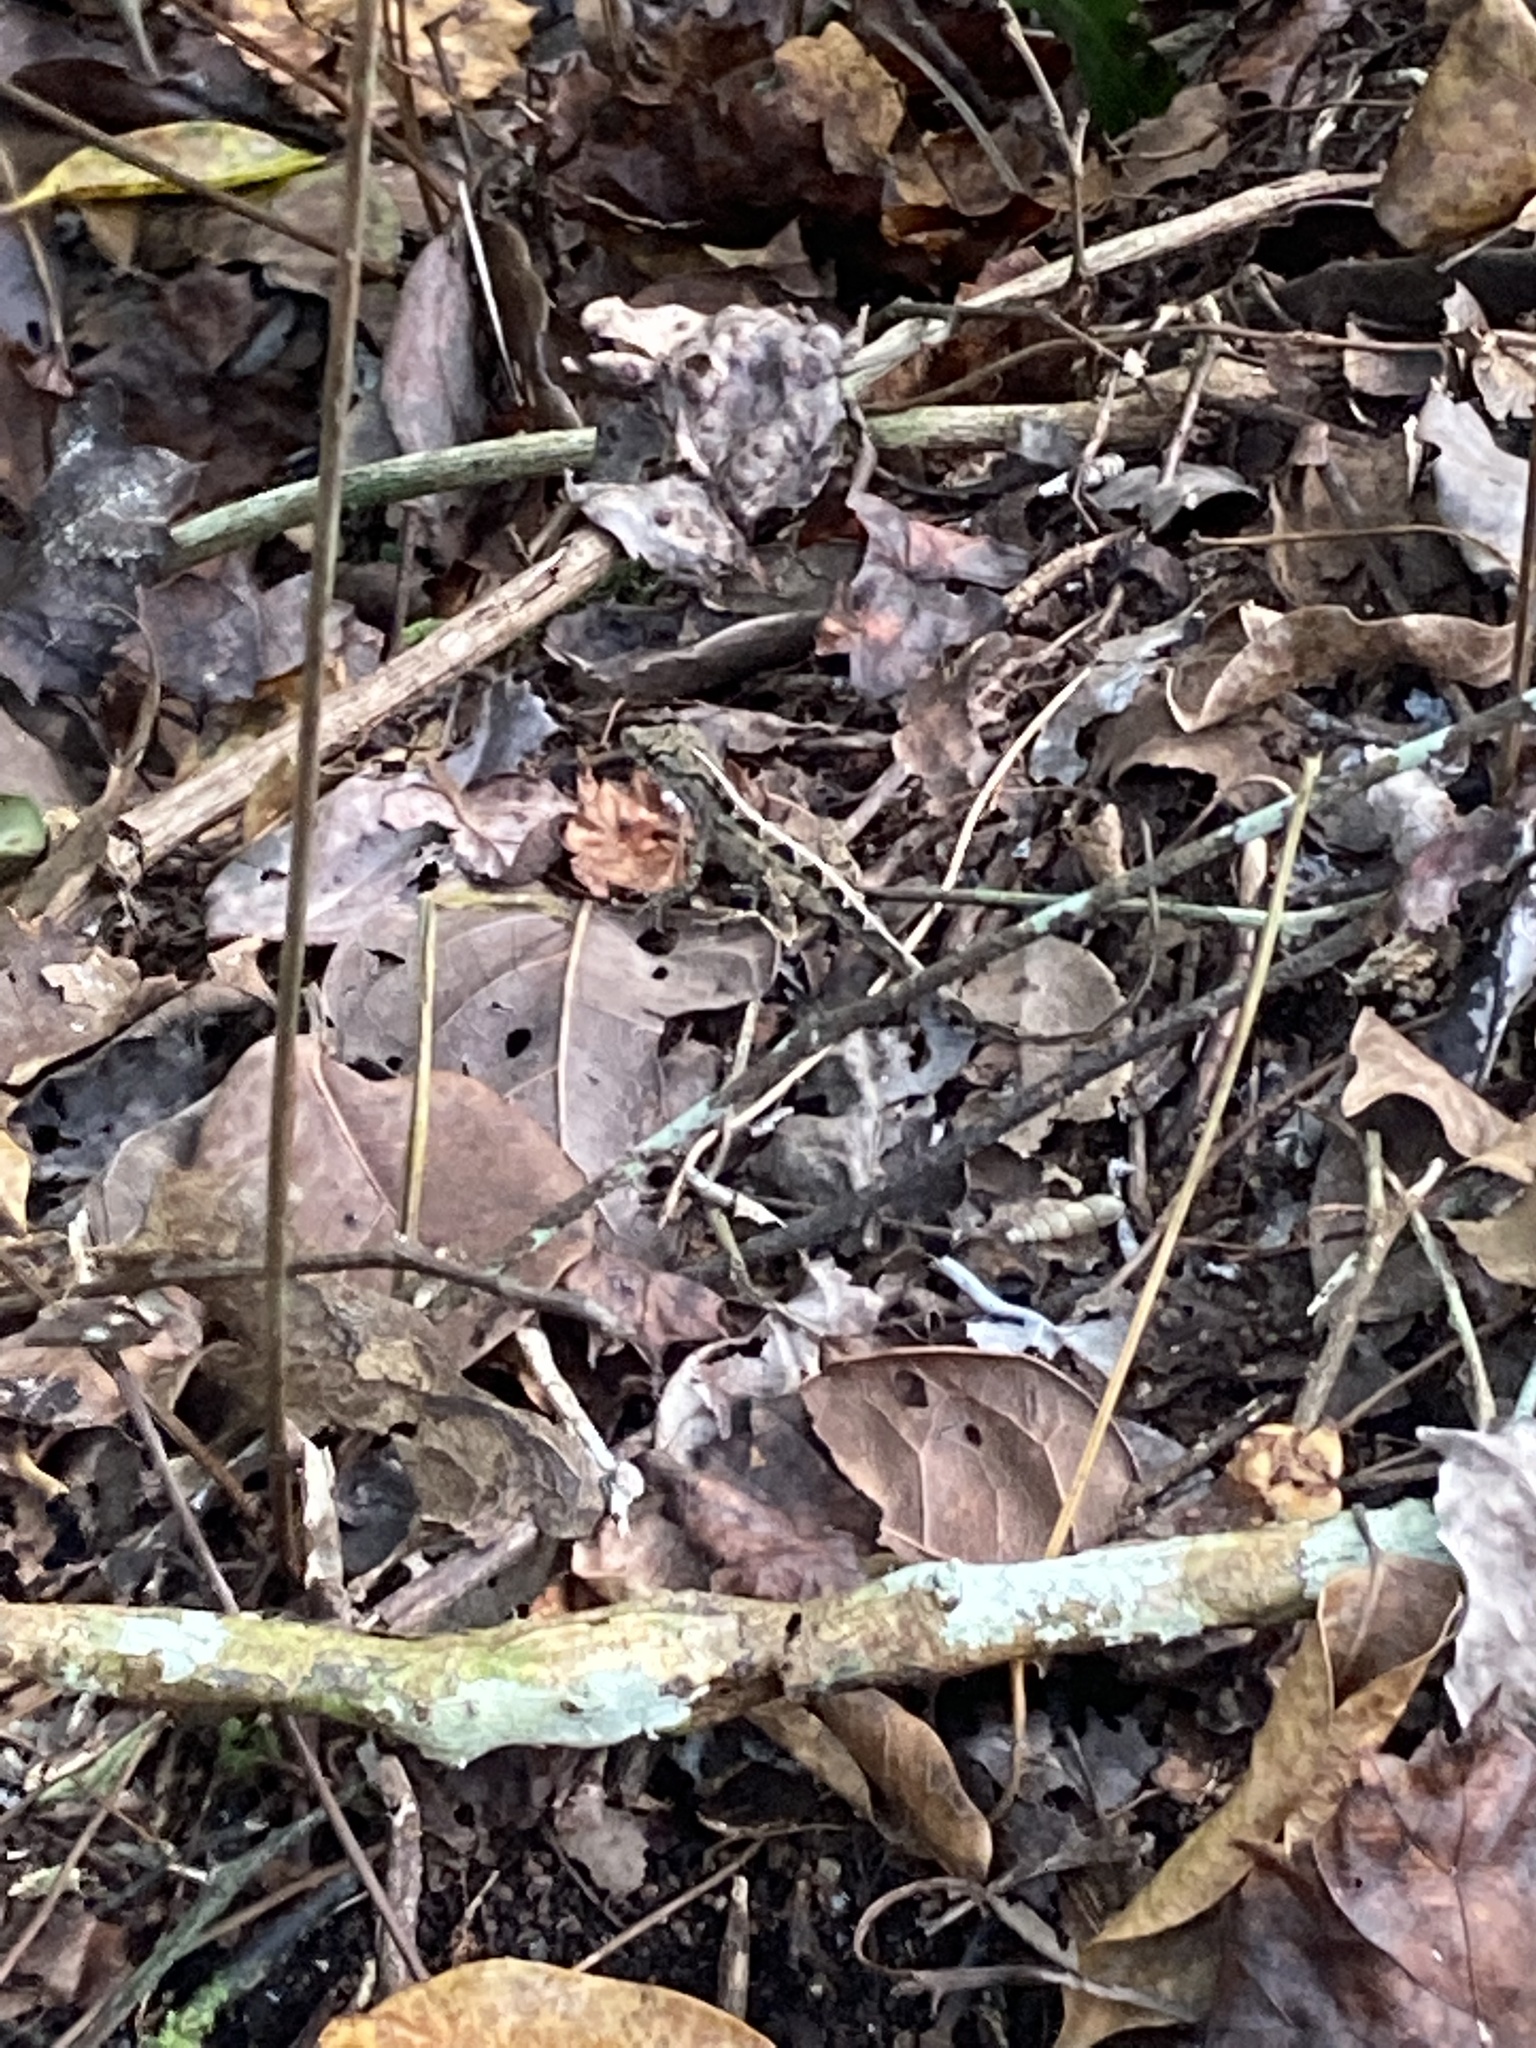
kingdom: Animalia
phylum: Chordata
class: Squamata
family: Dactyloidae
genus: Anolis
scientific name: Anolis sagrei
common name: Brown anole
